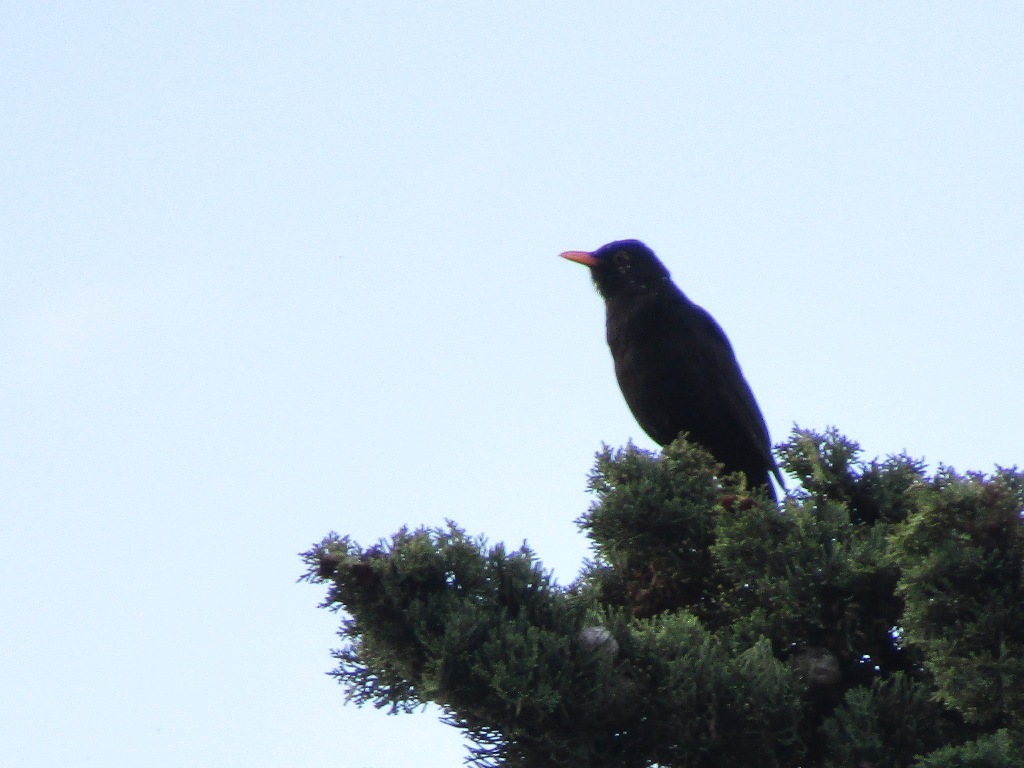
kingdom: Animalia
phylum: Chordata
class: Aves
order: Passeriformes
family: Turdidae
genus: Turdus
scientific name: Turdus merula
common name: Common blackbird
